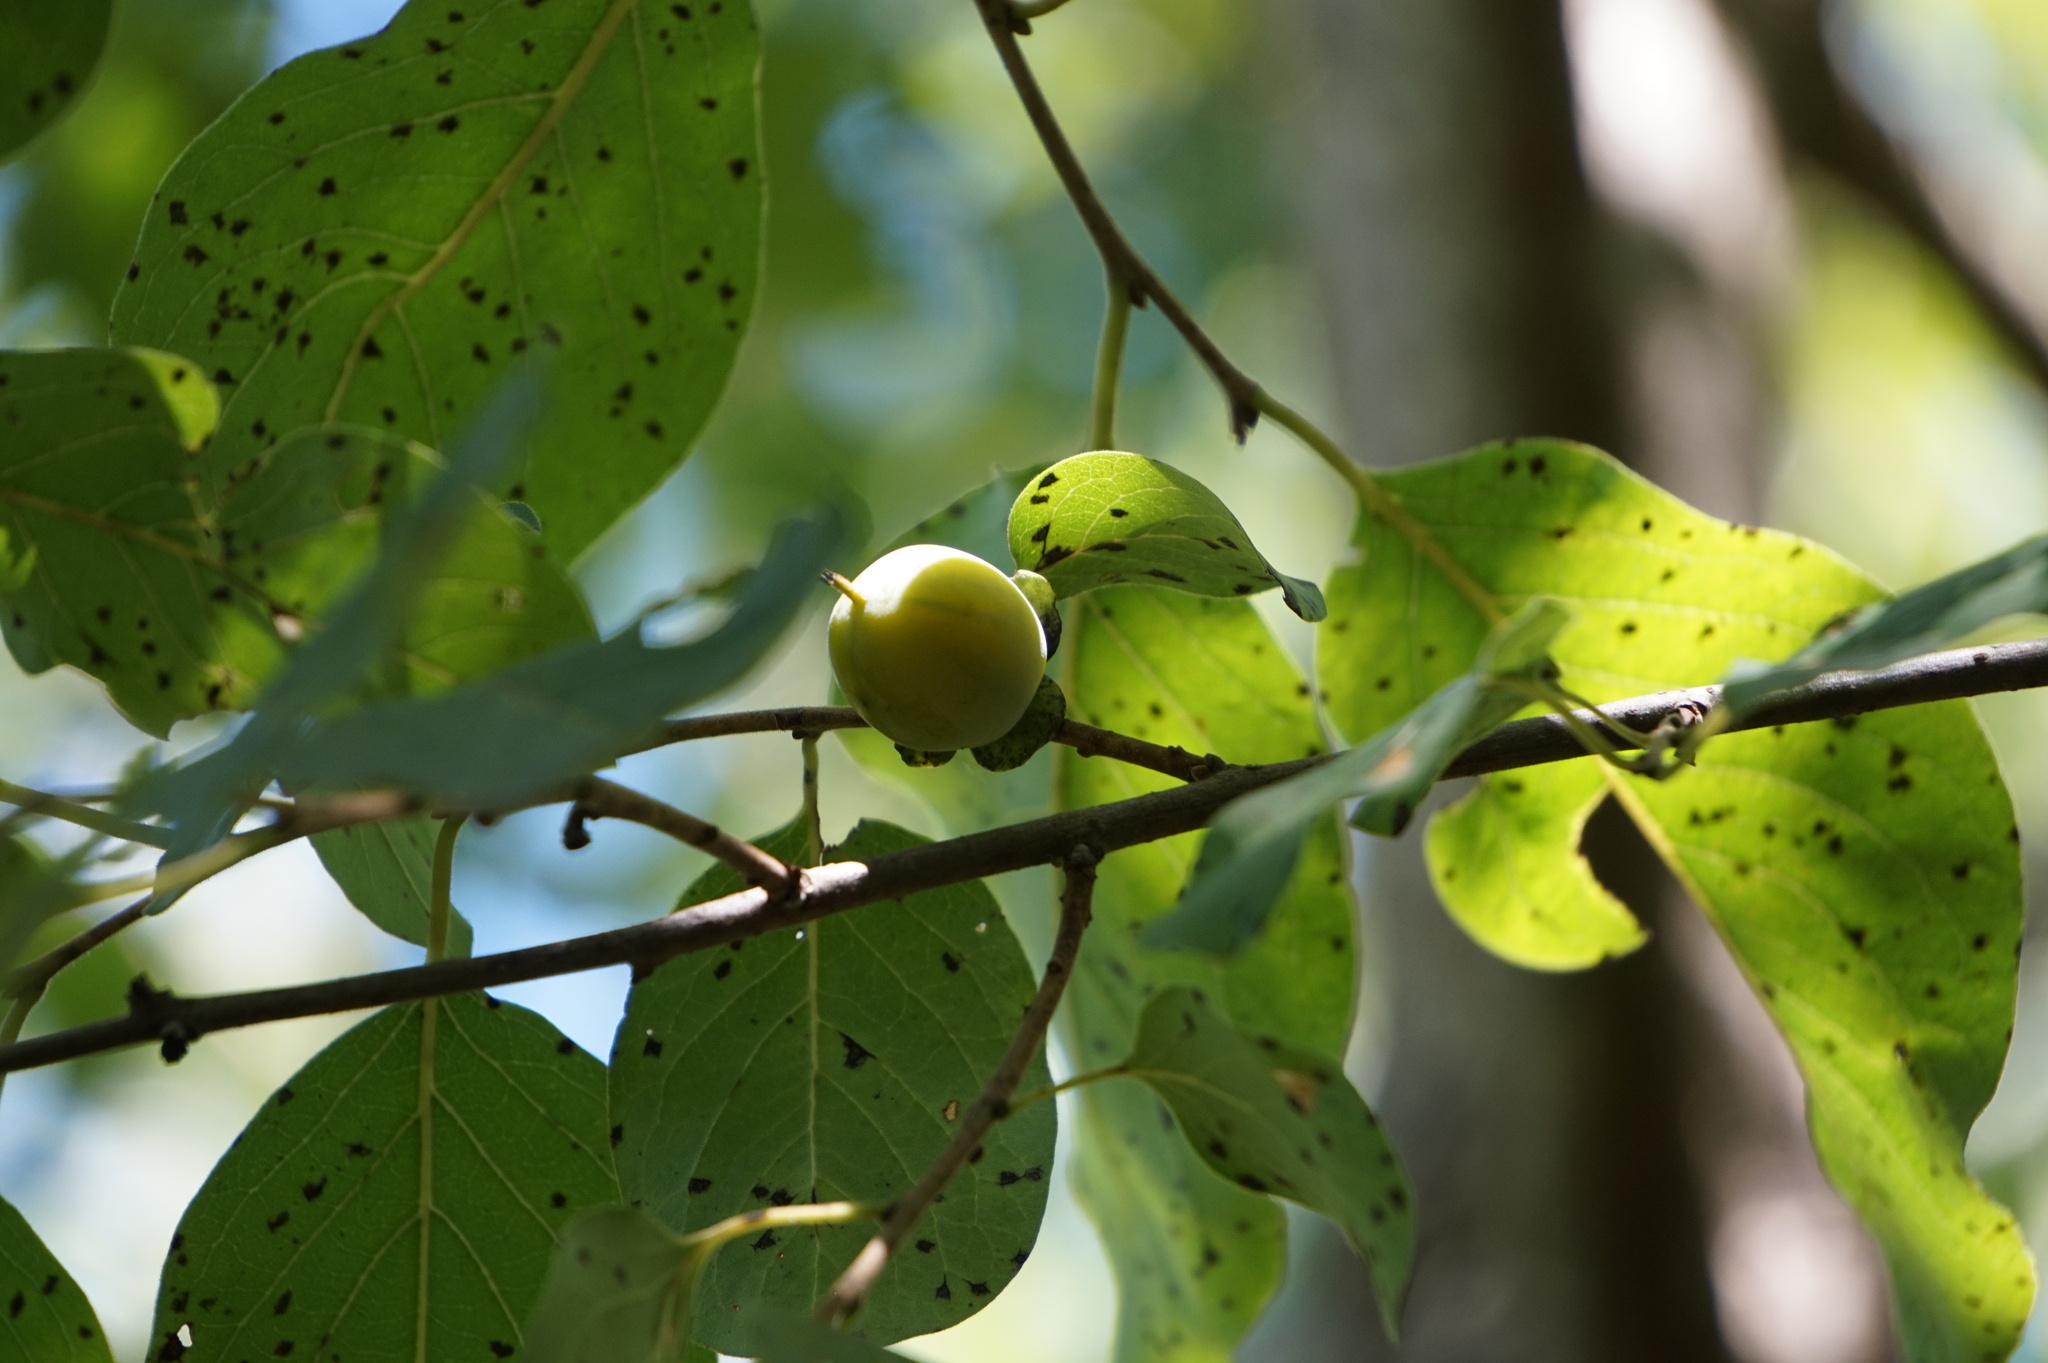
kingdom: Plantae
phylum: Tracheophyta
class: Magnoliopsida
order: Ericales
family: Ebenaceae
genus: Diospyros
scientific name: Diospyros virginiana
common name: Persimmon
